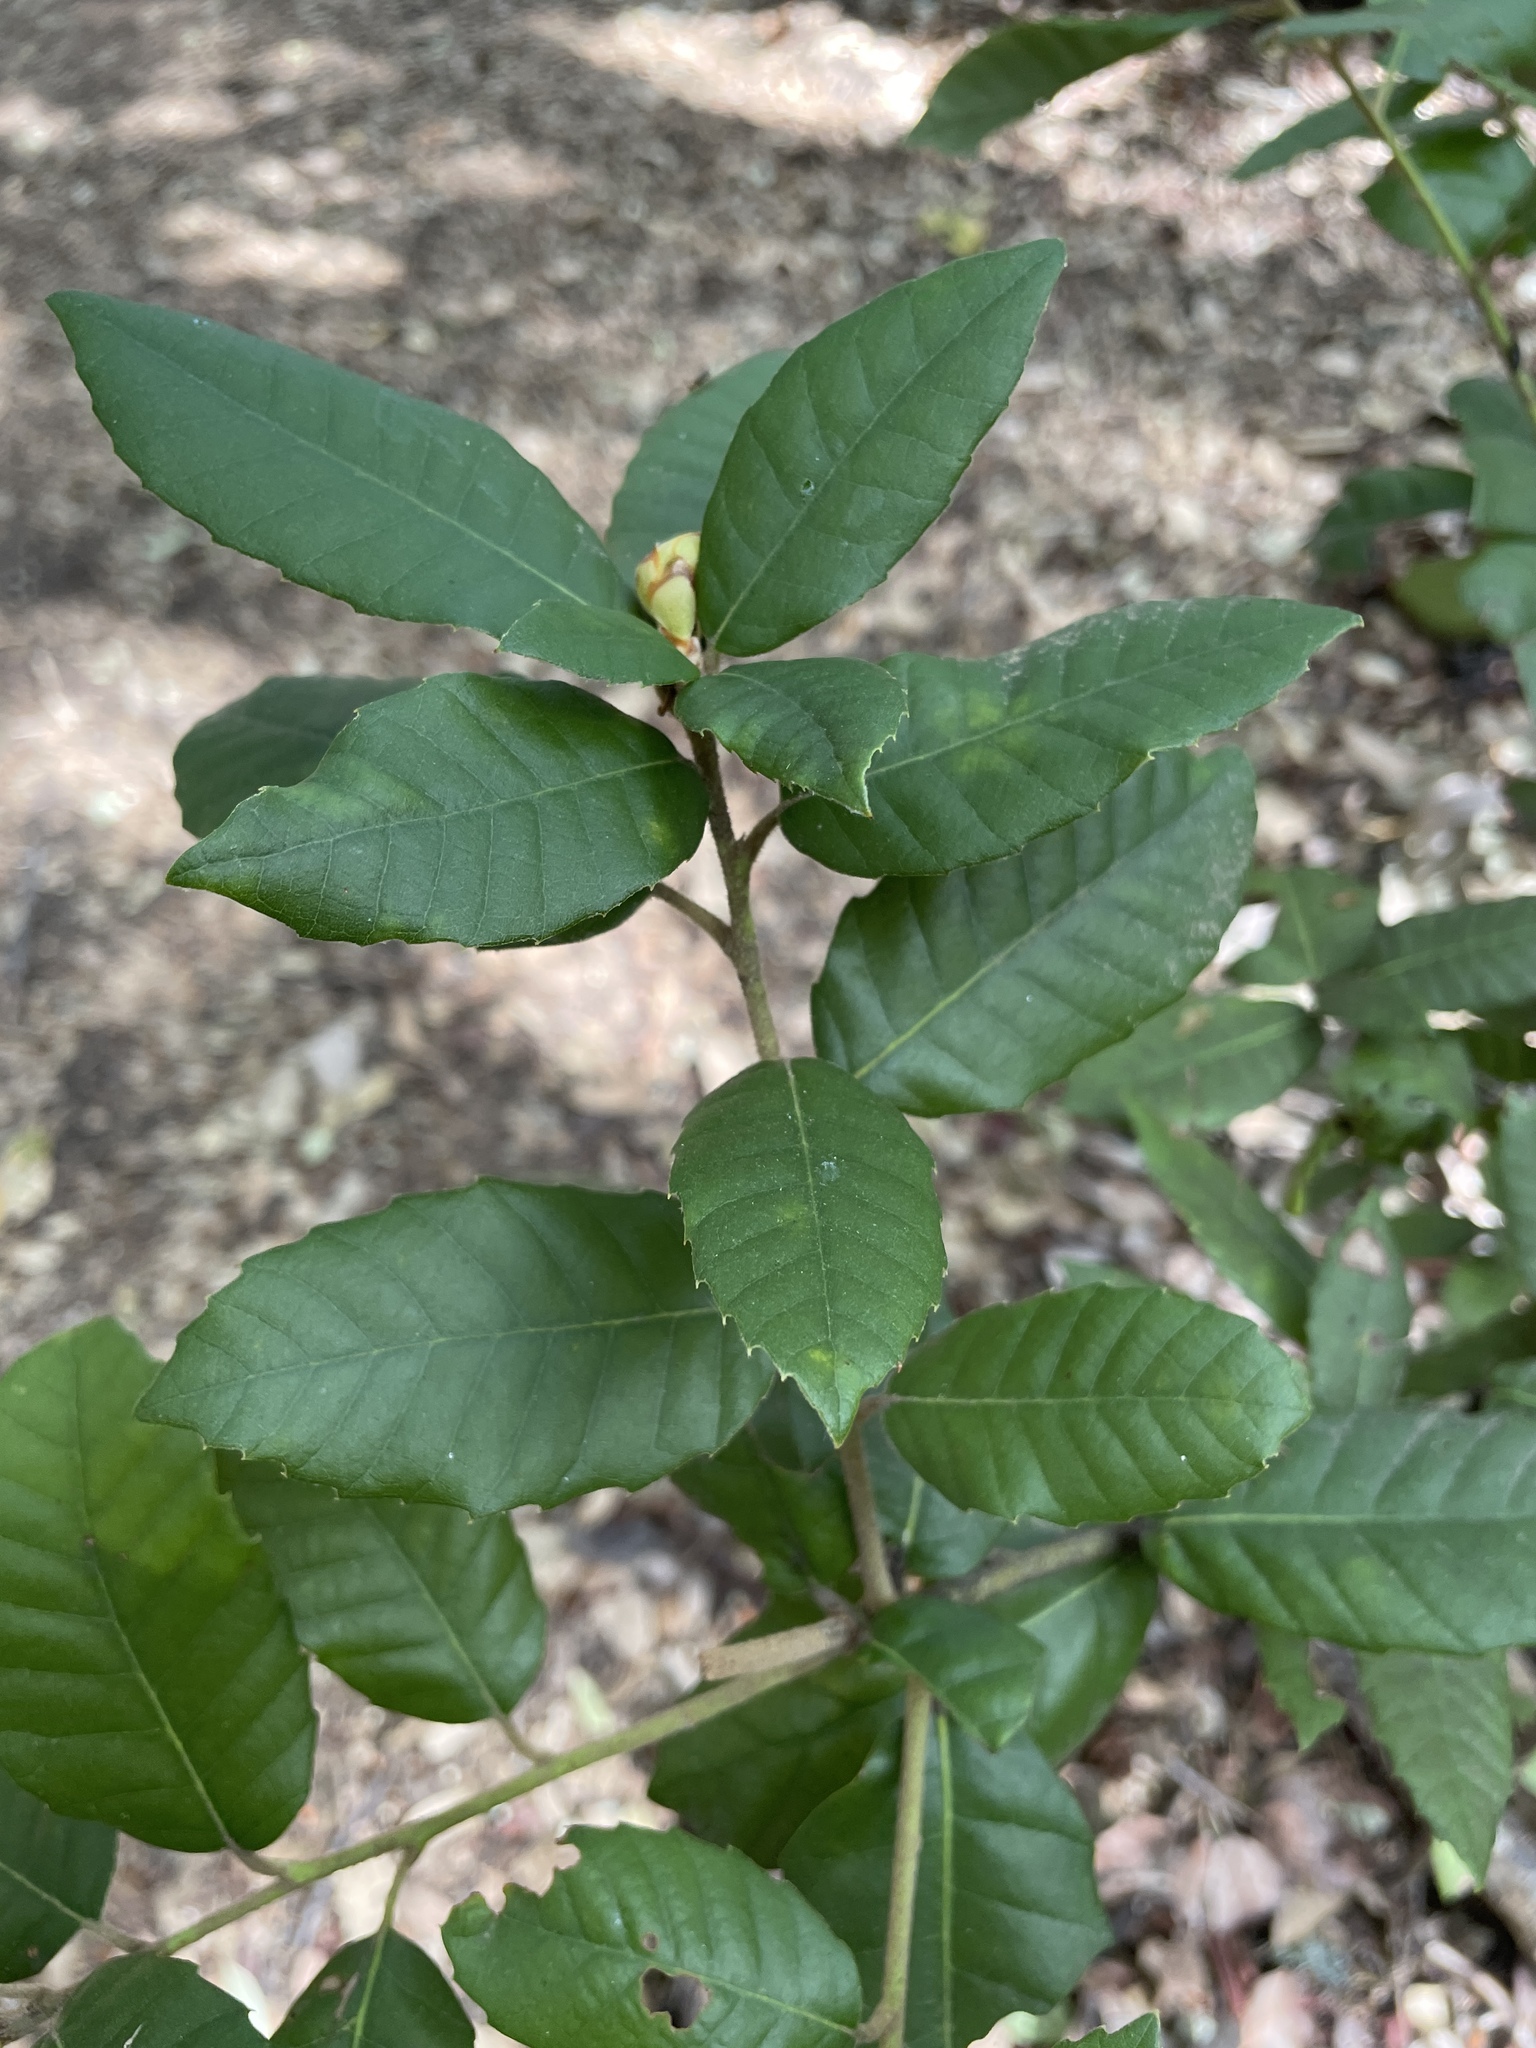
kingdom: Plantae
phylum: Tracheophyta
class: Magnoliopsida
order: Fagales
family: Fagaceae
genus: Notholithocarpus
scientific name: Notholithocarpus densiflorus
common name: Tan bark oak
